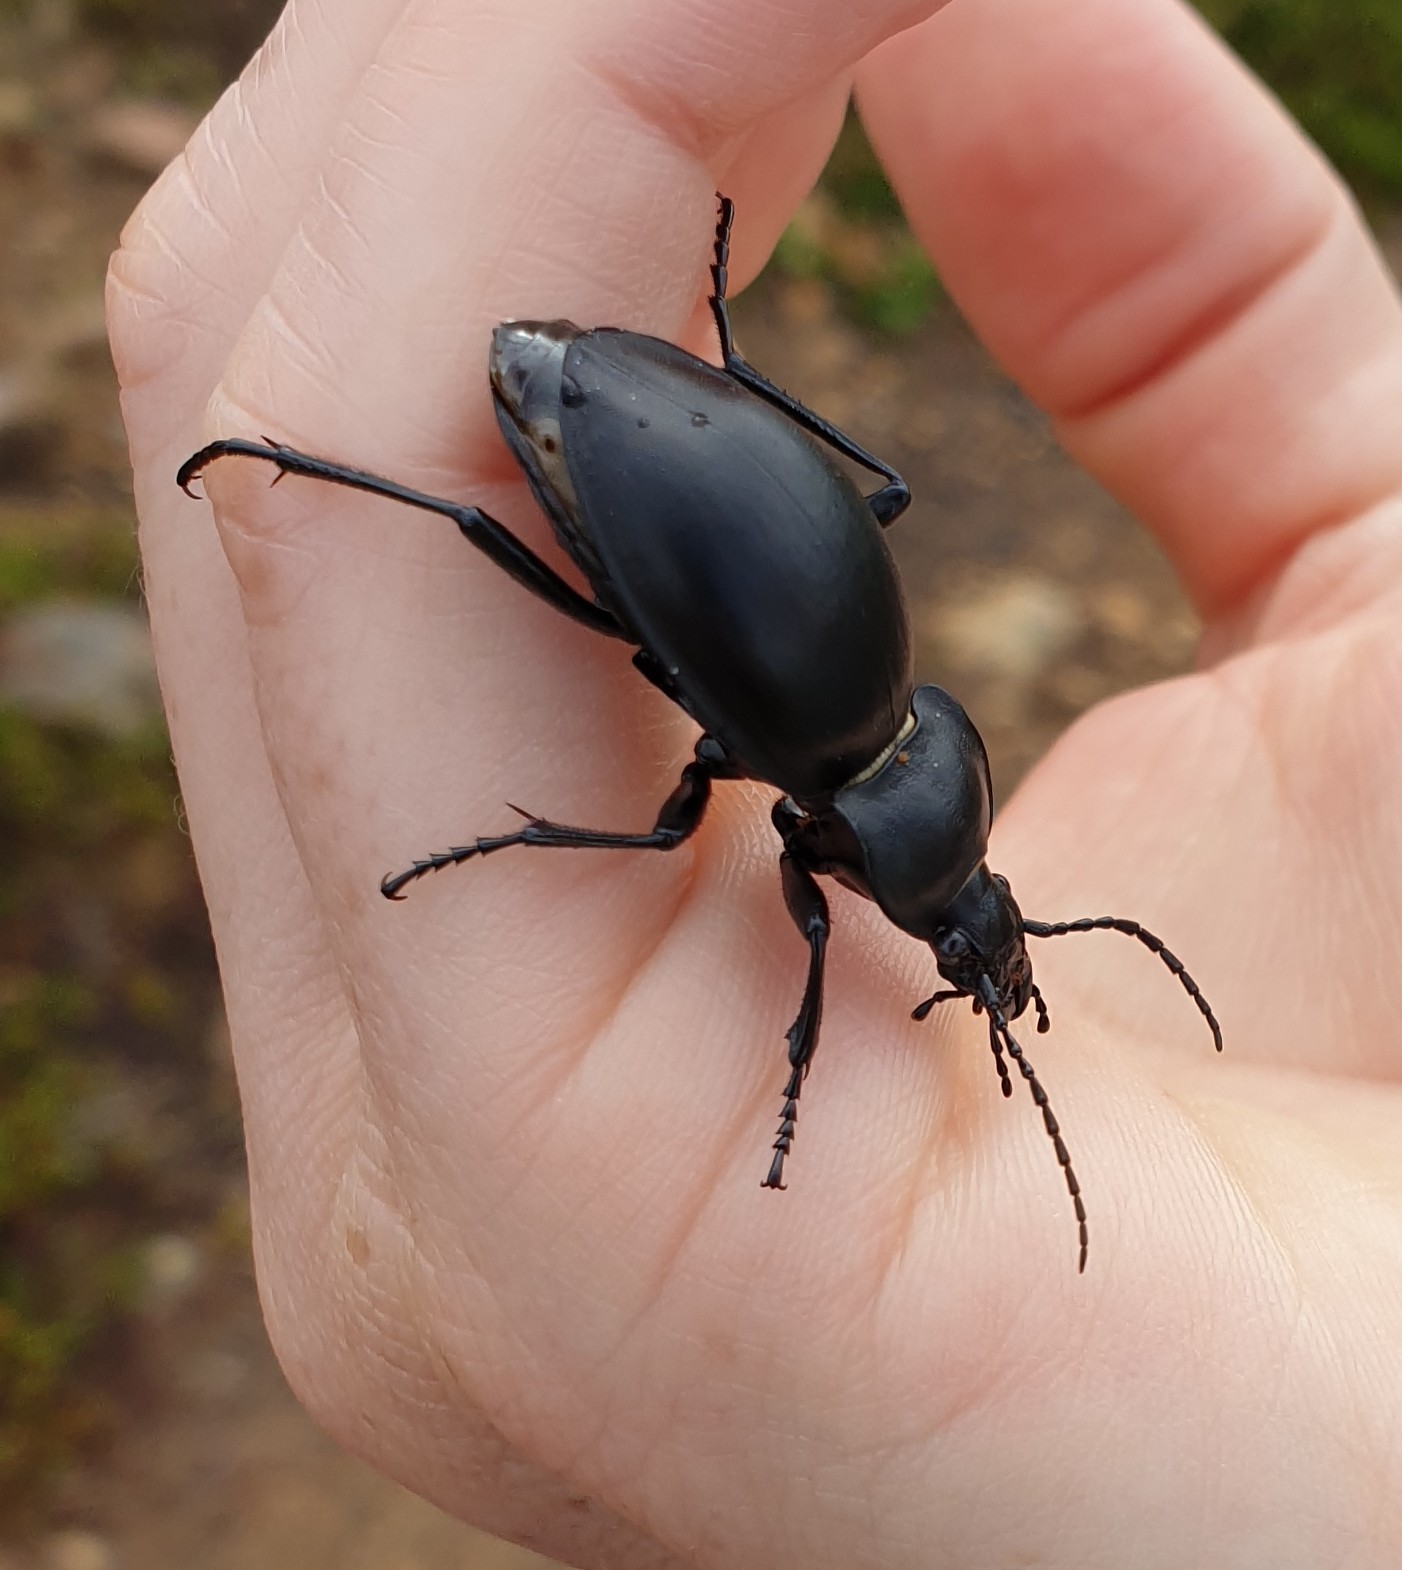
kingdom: Animalia
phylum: Arthropoda
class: Insecta
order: Coleoptera
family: Carabidae
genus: Carabus
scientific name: Carabus glabratus
